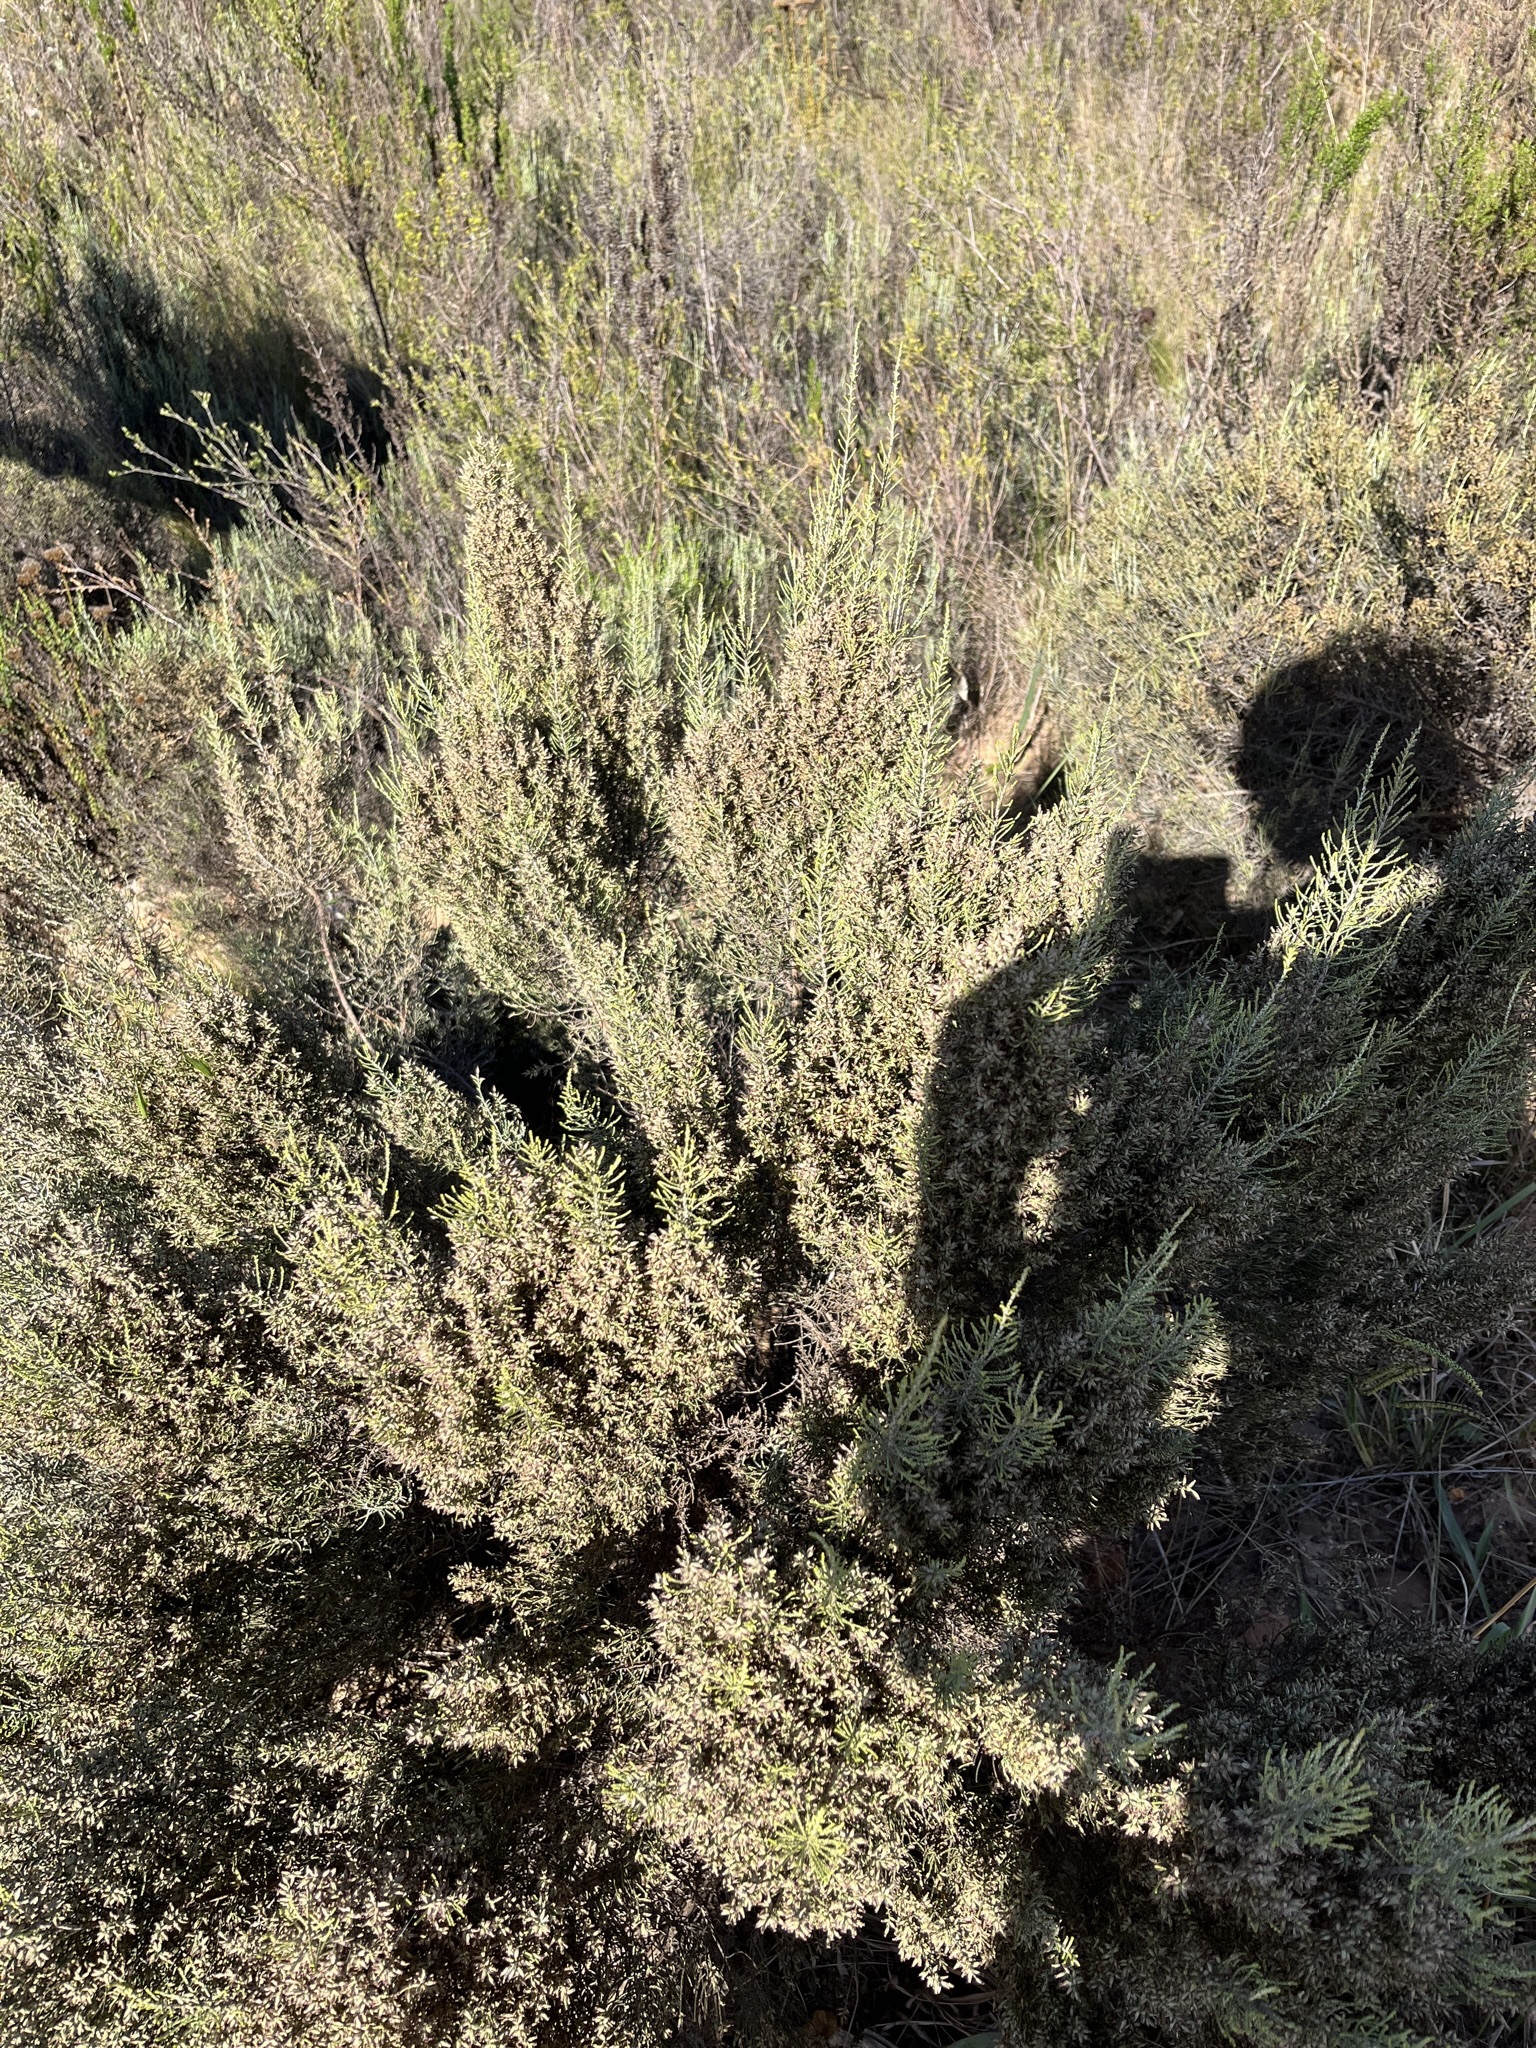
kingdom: Plantae
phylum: Tracheophyta
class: Magnoliopsida
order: Asterales
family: Asteraceae
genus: Dicerothamnus
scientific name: Dicerothamnus rhinocerotis
